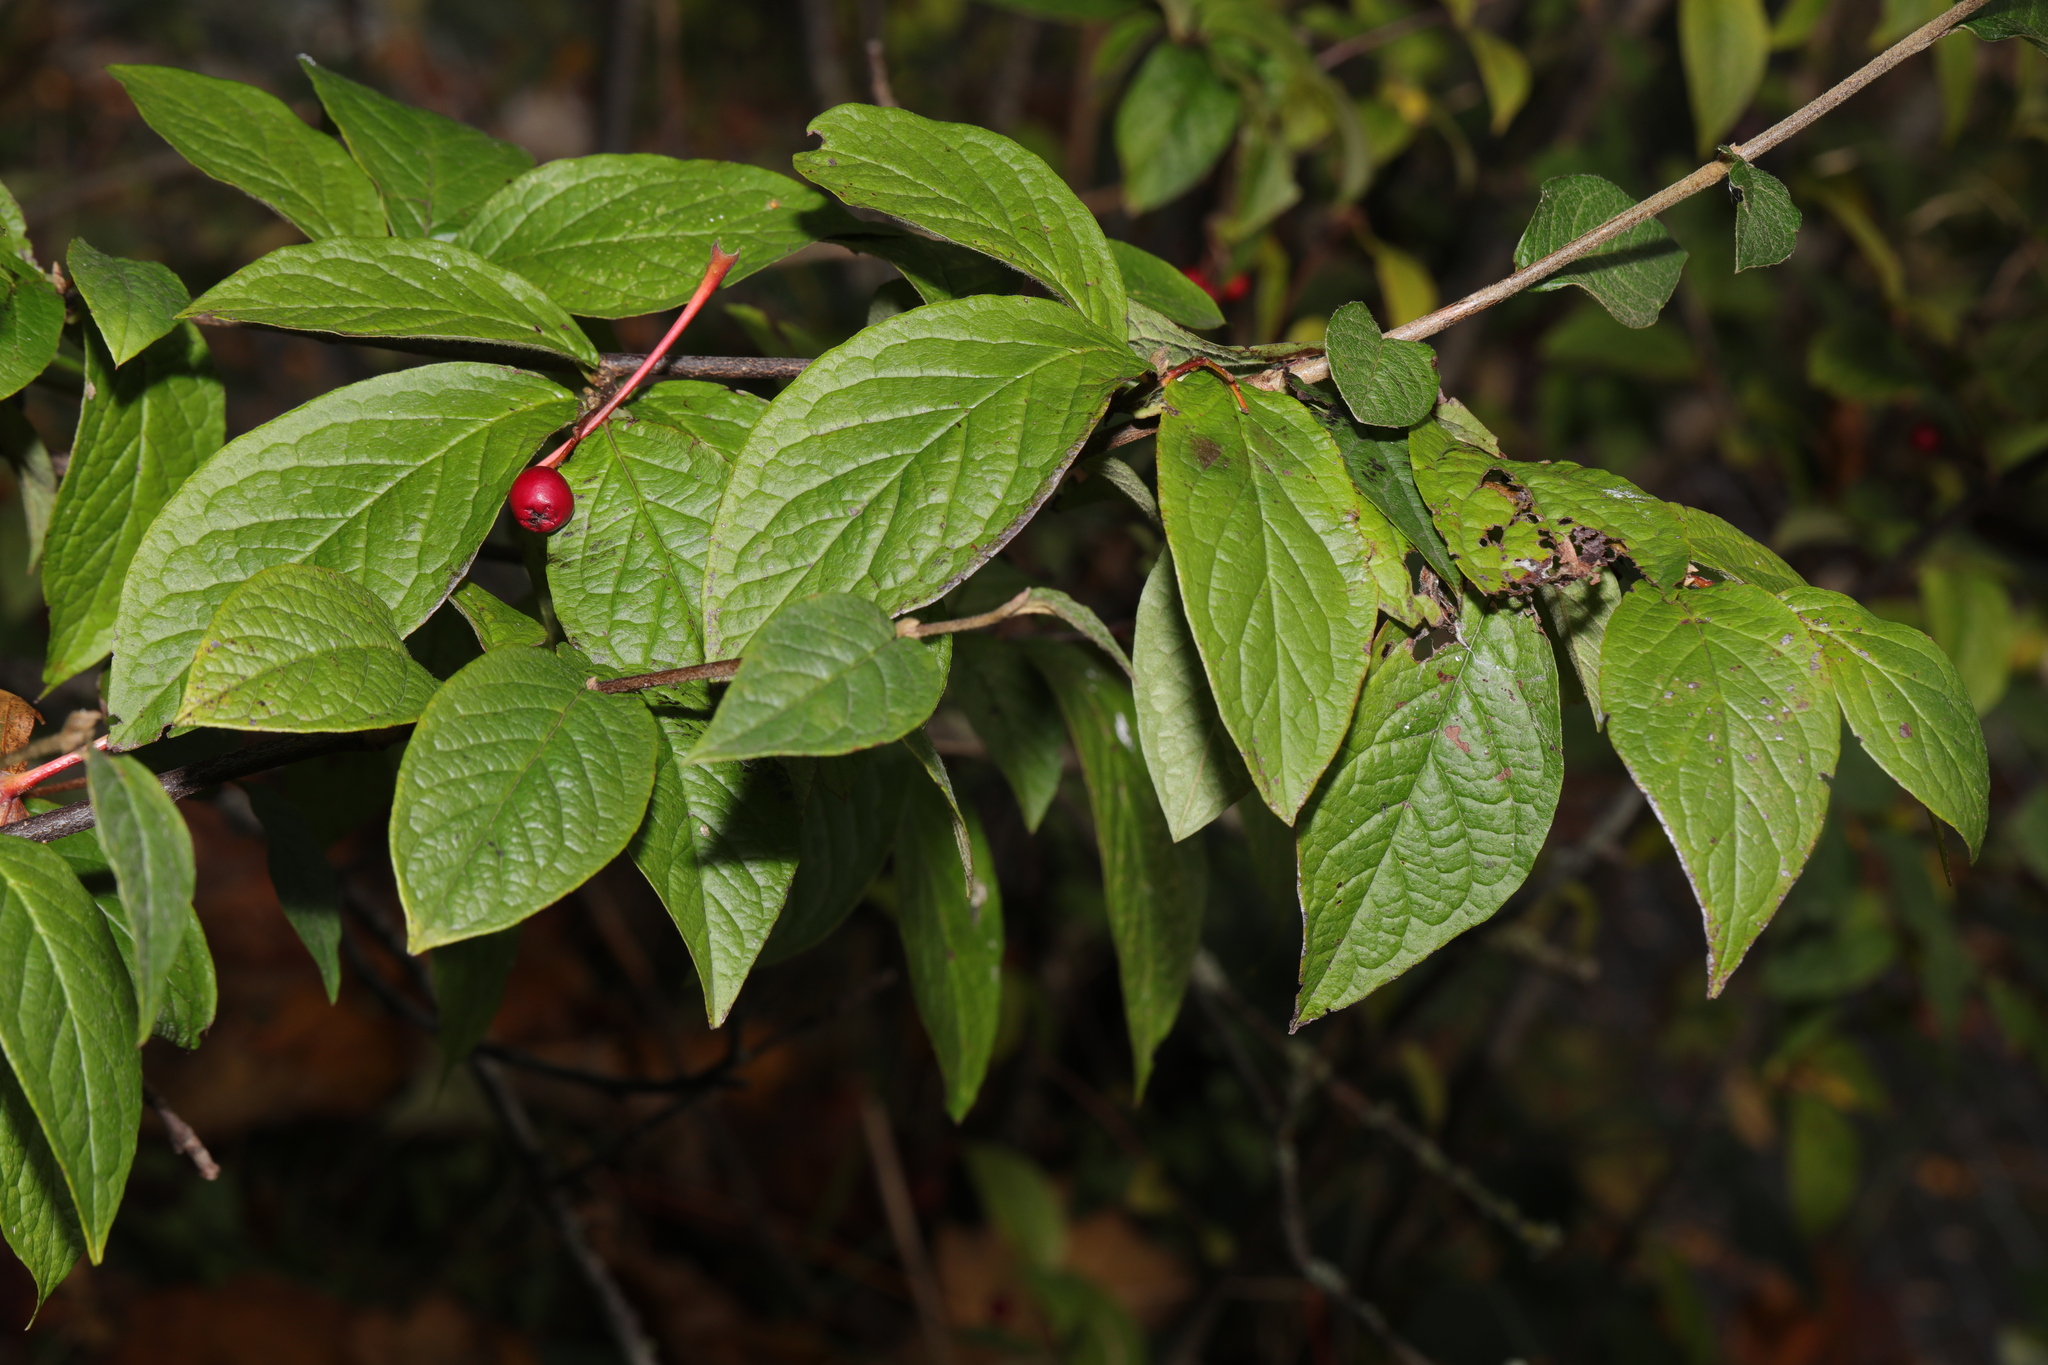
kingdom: Plantae
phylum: Tracheophyta
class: Magnoliopsida
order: Rosales
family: Rosaceae
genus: Cotoneaster
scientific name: Cotoneaster bullatus
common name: Hollyberry cotoneaster
